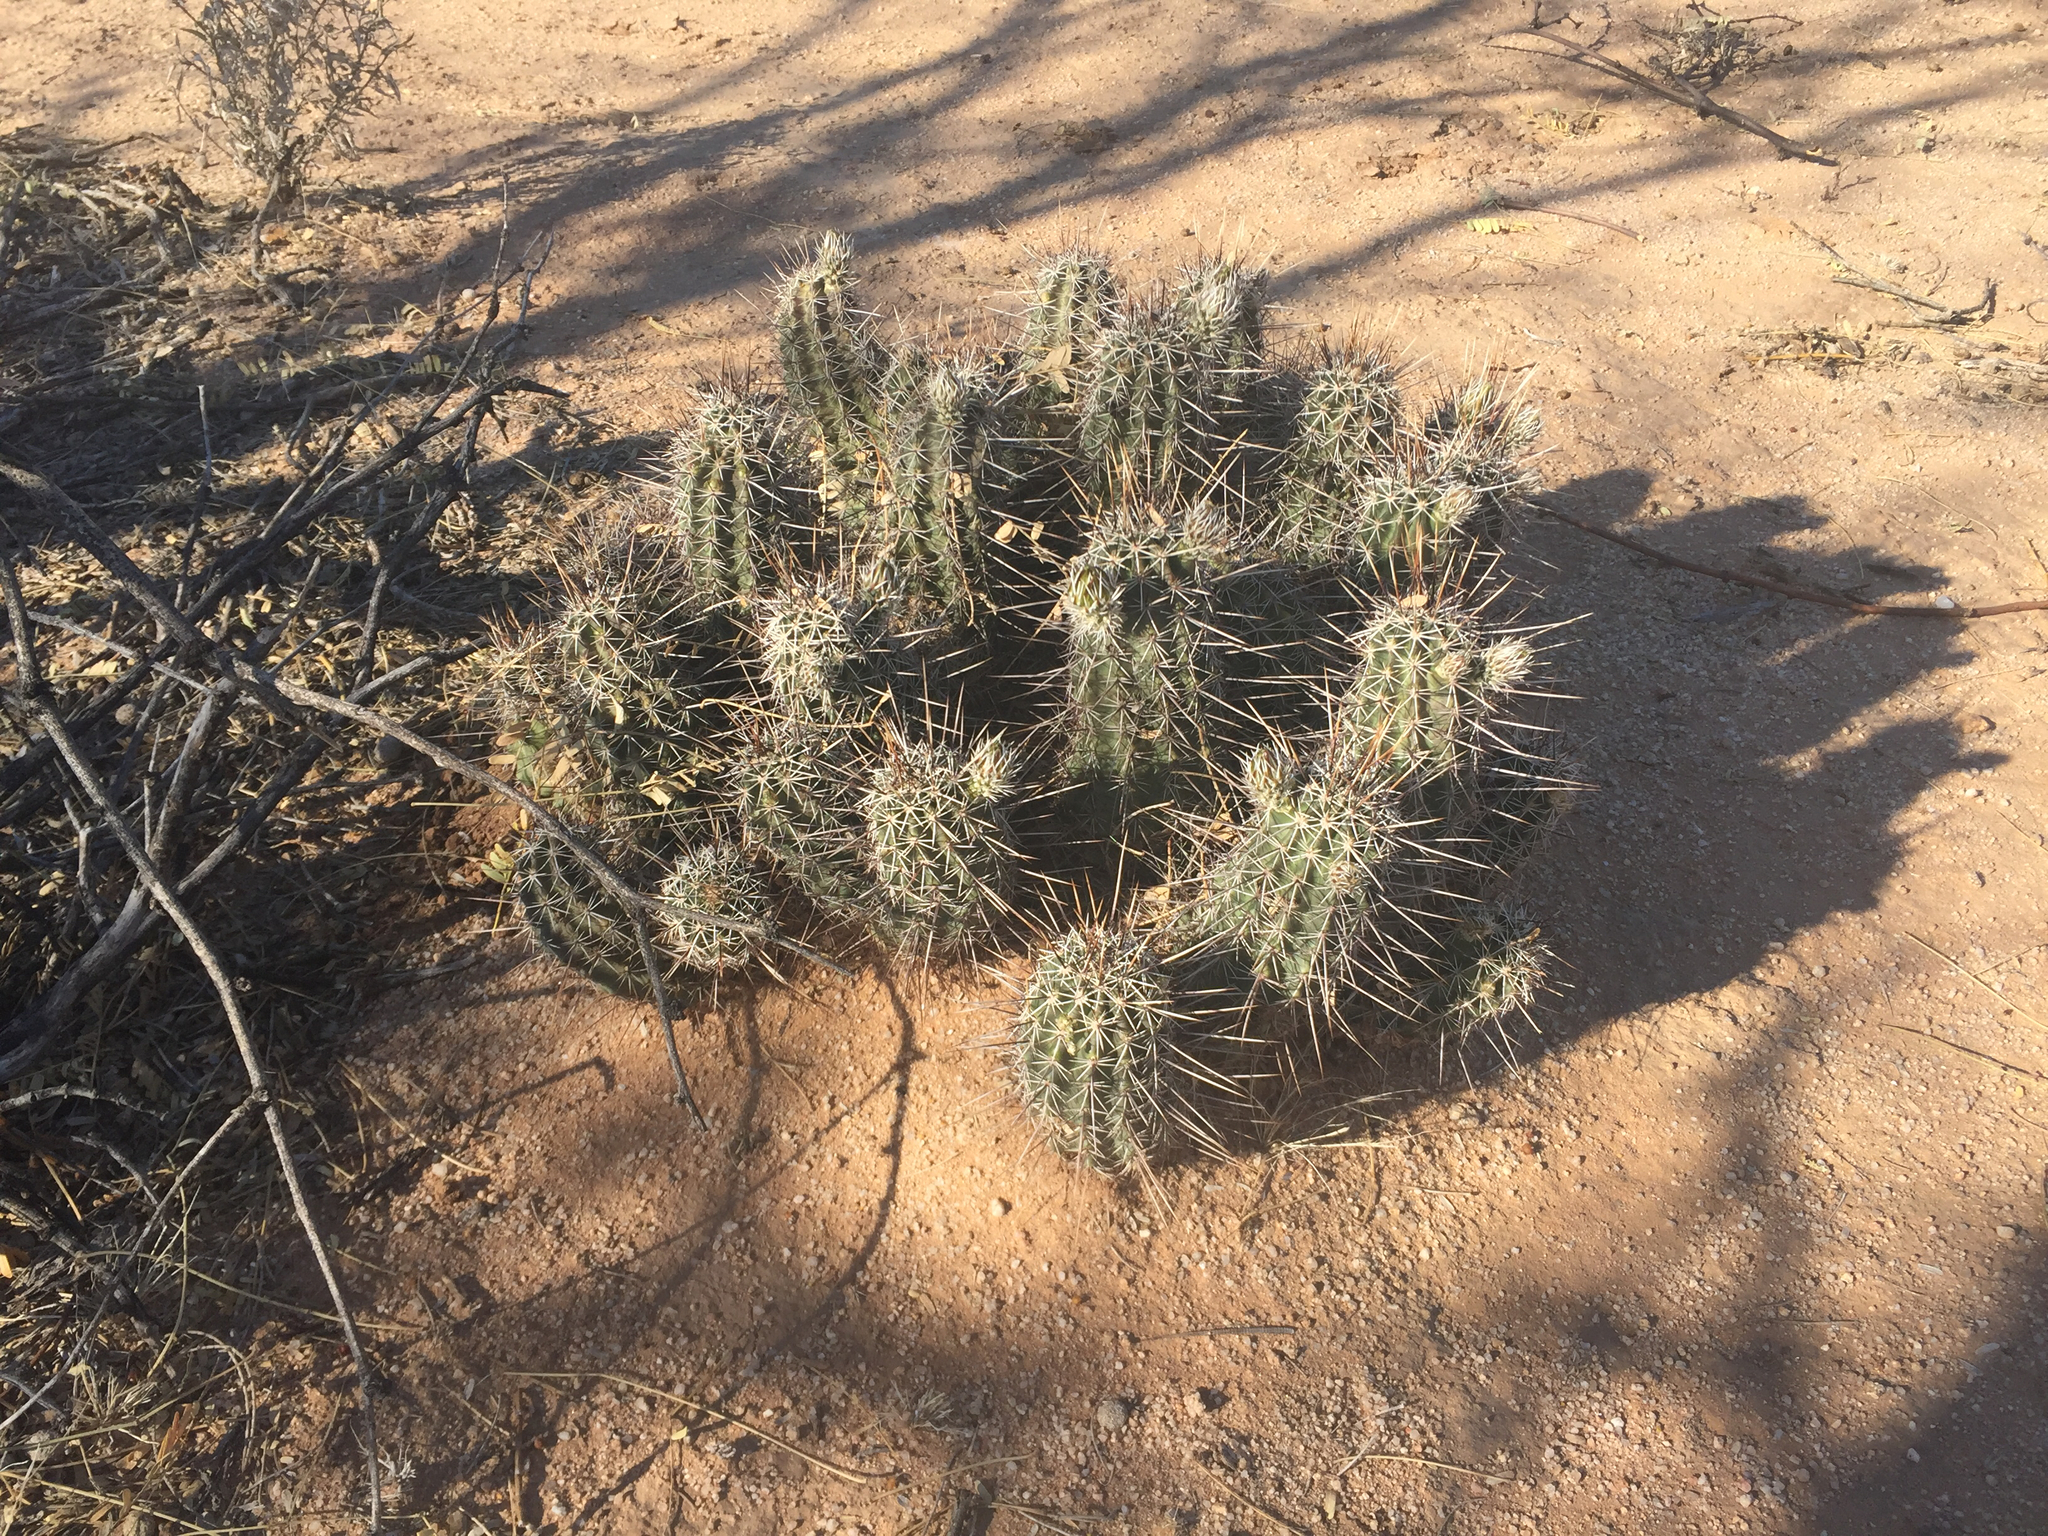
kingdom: Plantae
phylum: Tracheophyta
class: Magnoliopsida
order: Caryophyllales
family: Cactaceae
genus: Echinocereus
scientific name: Echinocereus fasciculatus
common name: Bundle hedgehog
